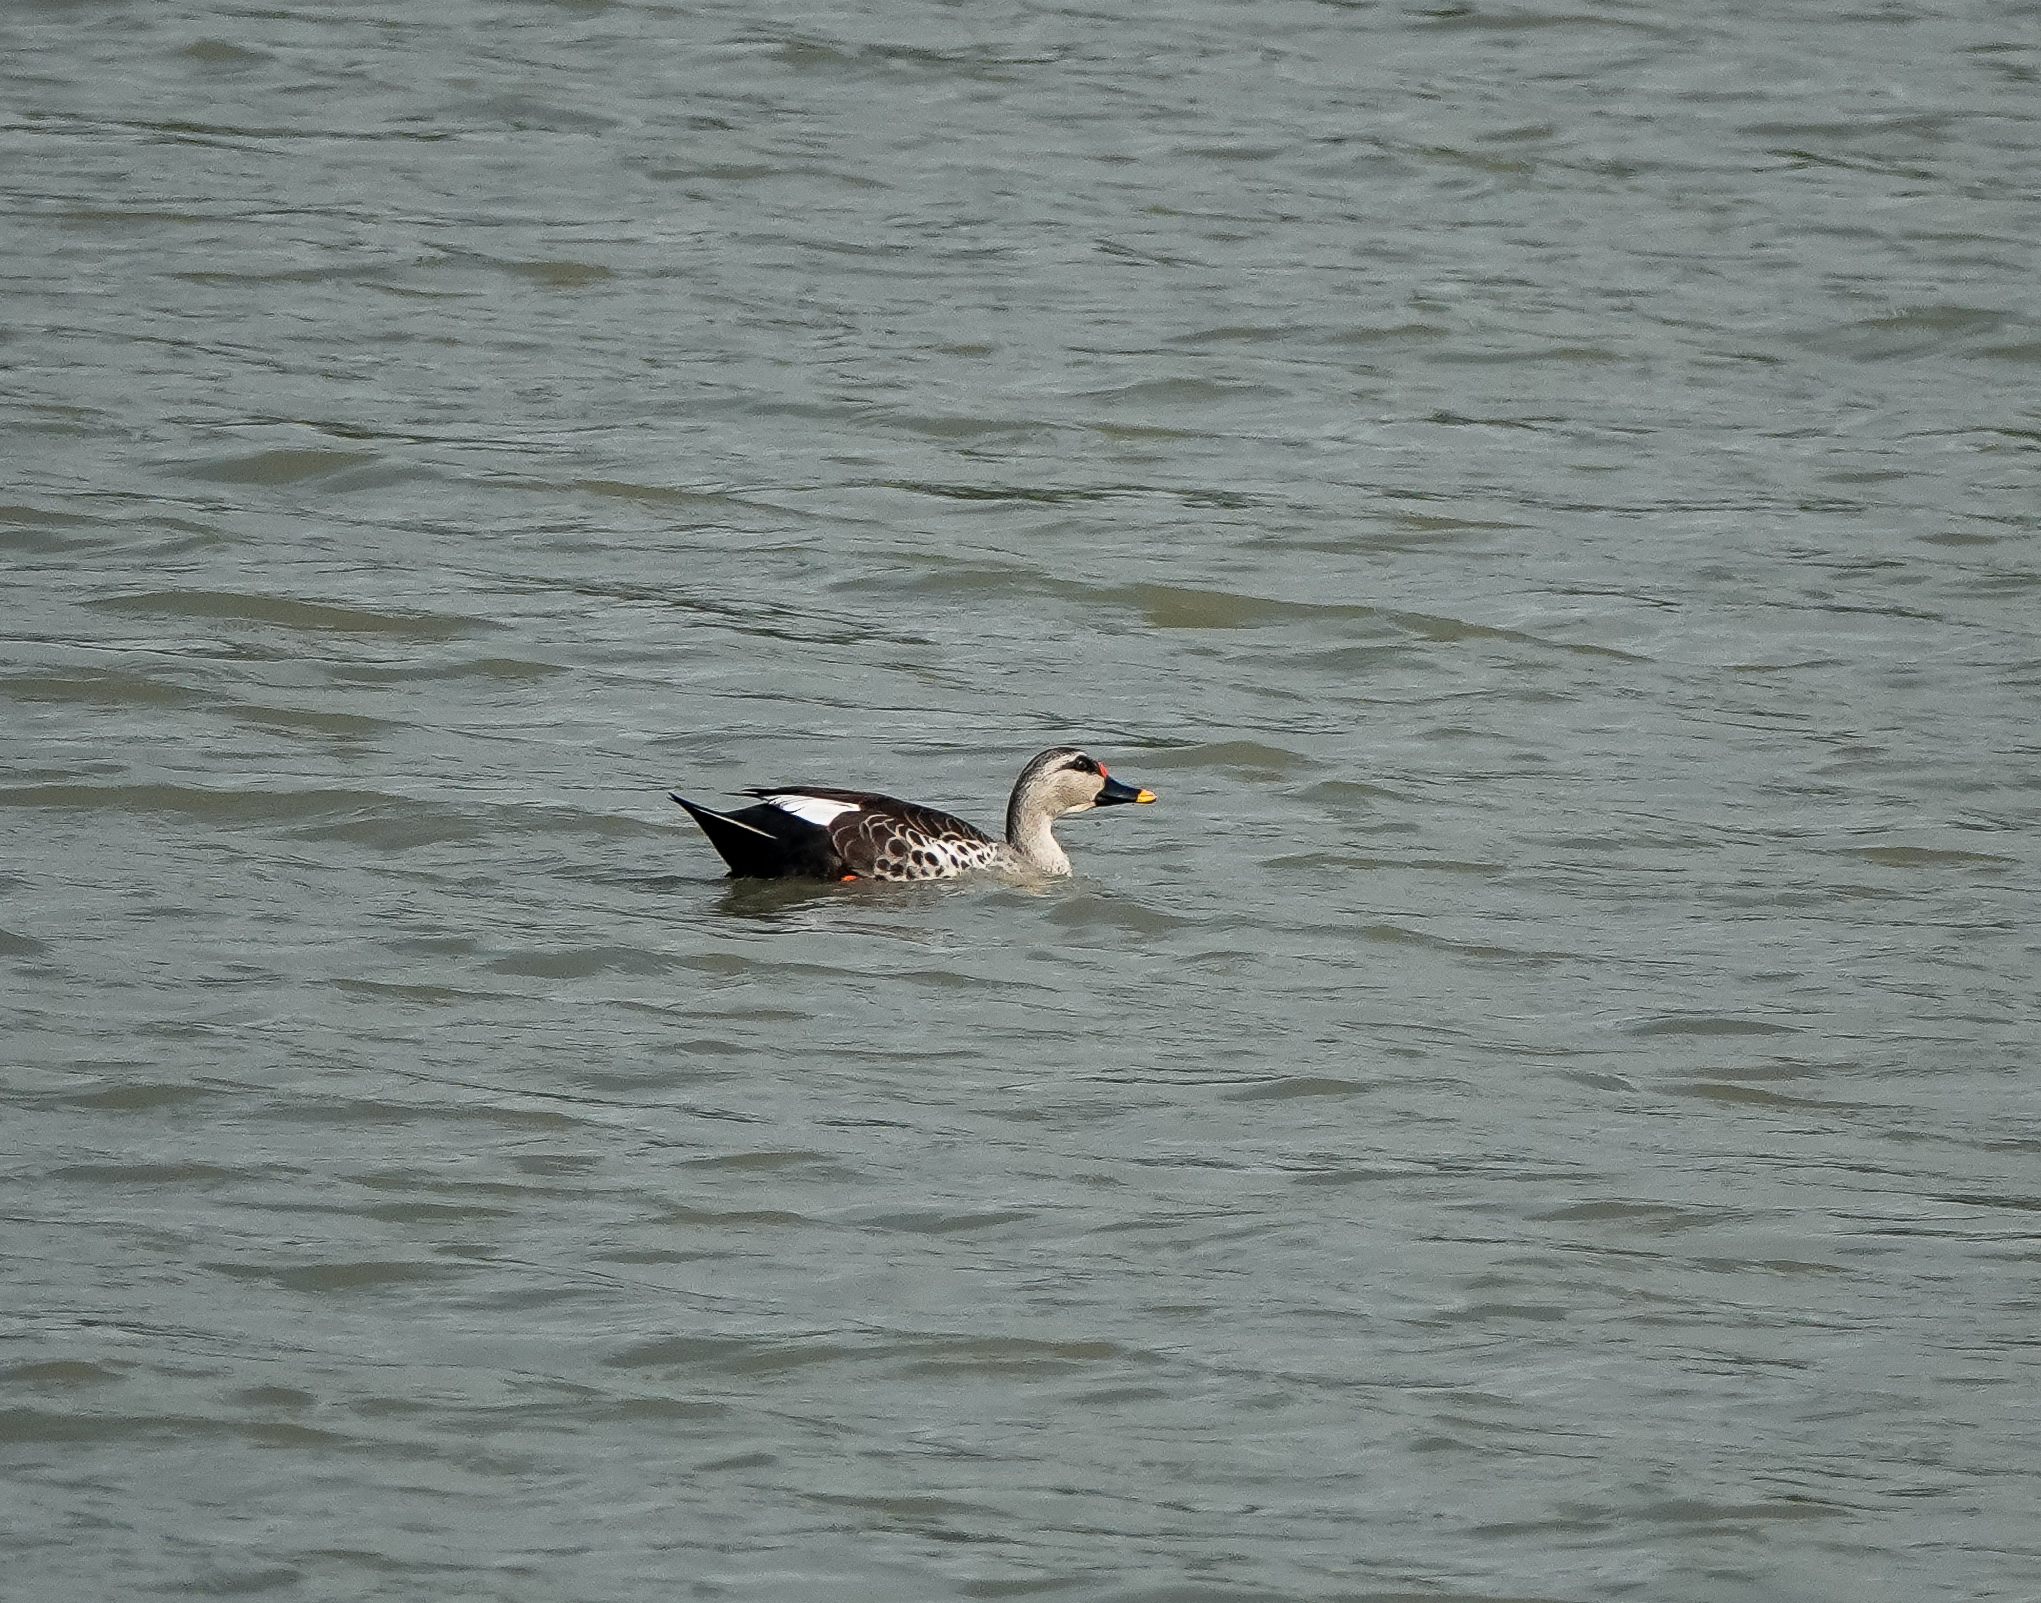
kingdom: Animalia
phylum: Chordata
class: Aves
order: Anseriformes
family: Anatidae
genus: Anas
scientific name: Anas poecilorhyncha
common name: Indian spot-billed duck
